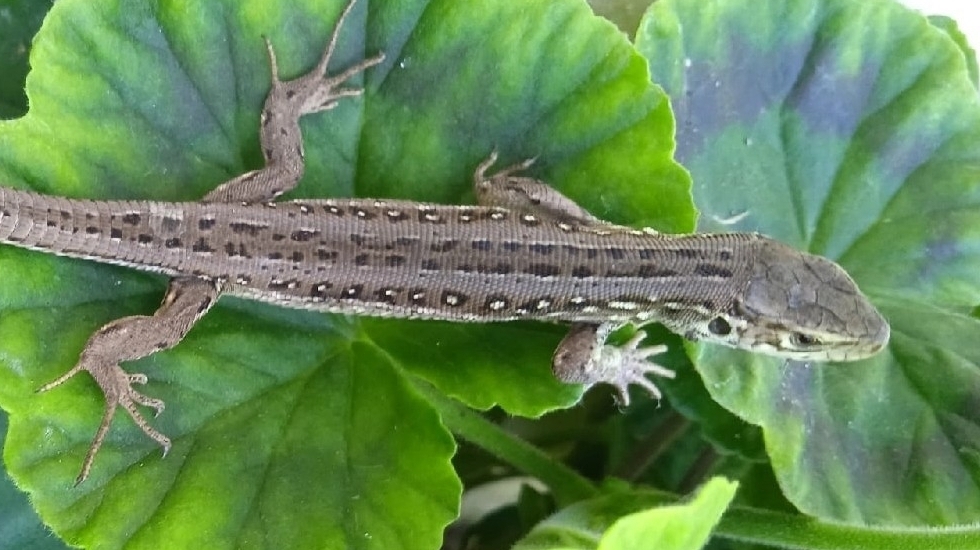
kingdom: Animalia
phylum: Chordata
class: Squamata
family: Lacertidae
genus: Lacerta
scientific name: Lacerta agilis
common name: Sand lizard
